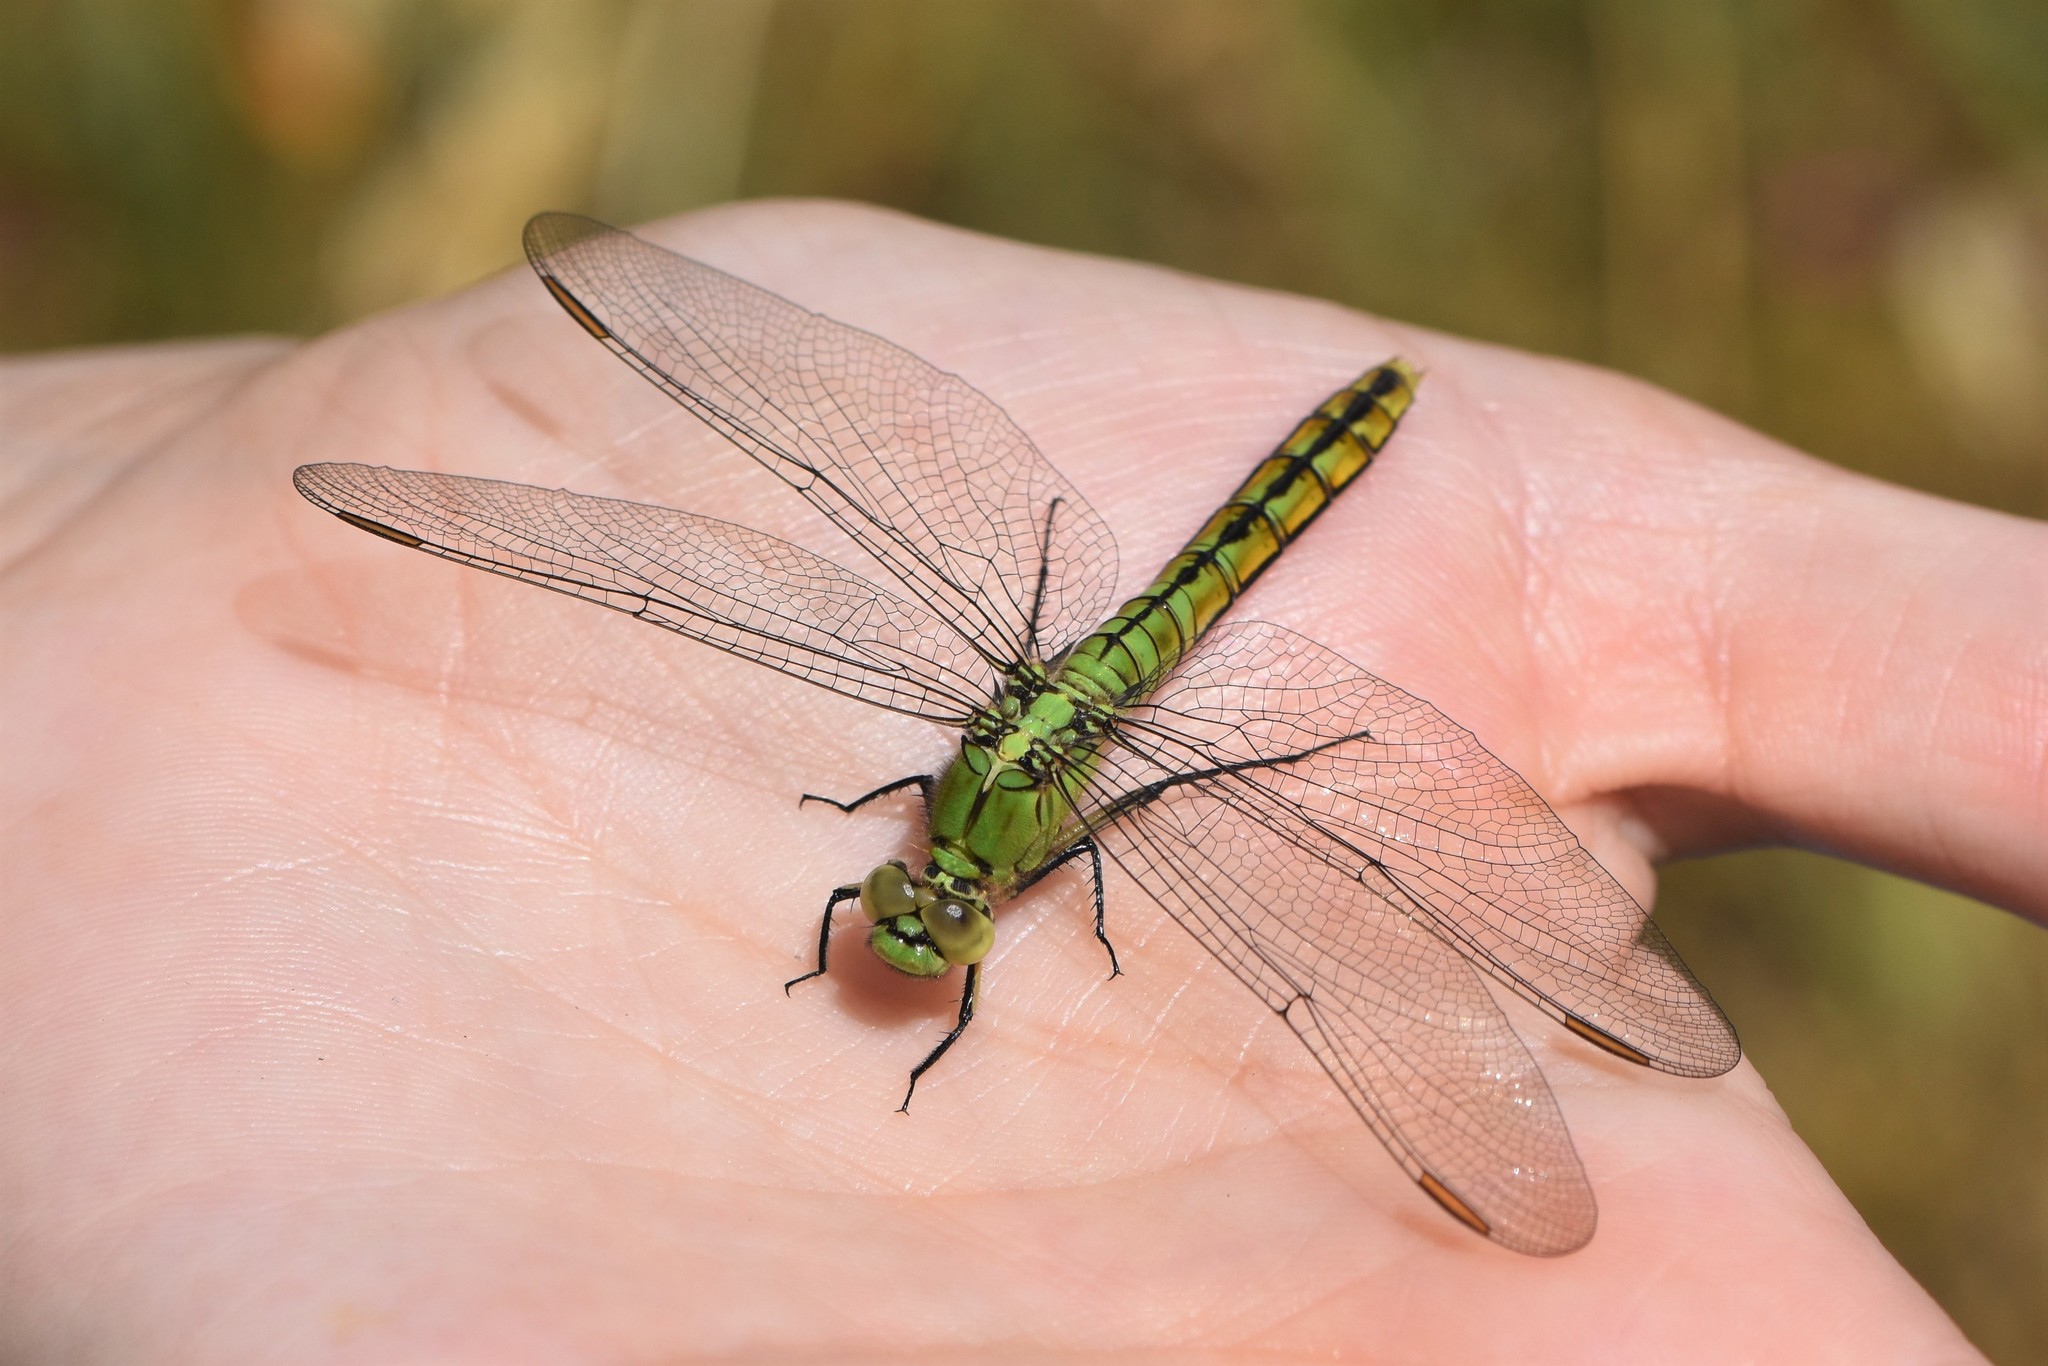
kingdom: Animalia
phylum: Arthropoda
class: Insecta
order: Odonata
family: Libellulidae
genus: Erythemis
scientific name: Erythemis collocata
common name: Western pondhawk
